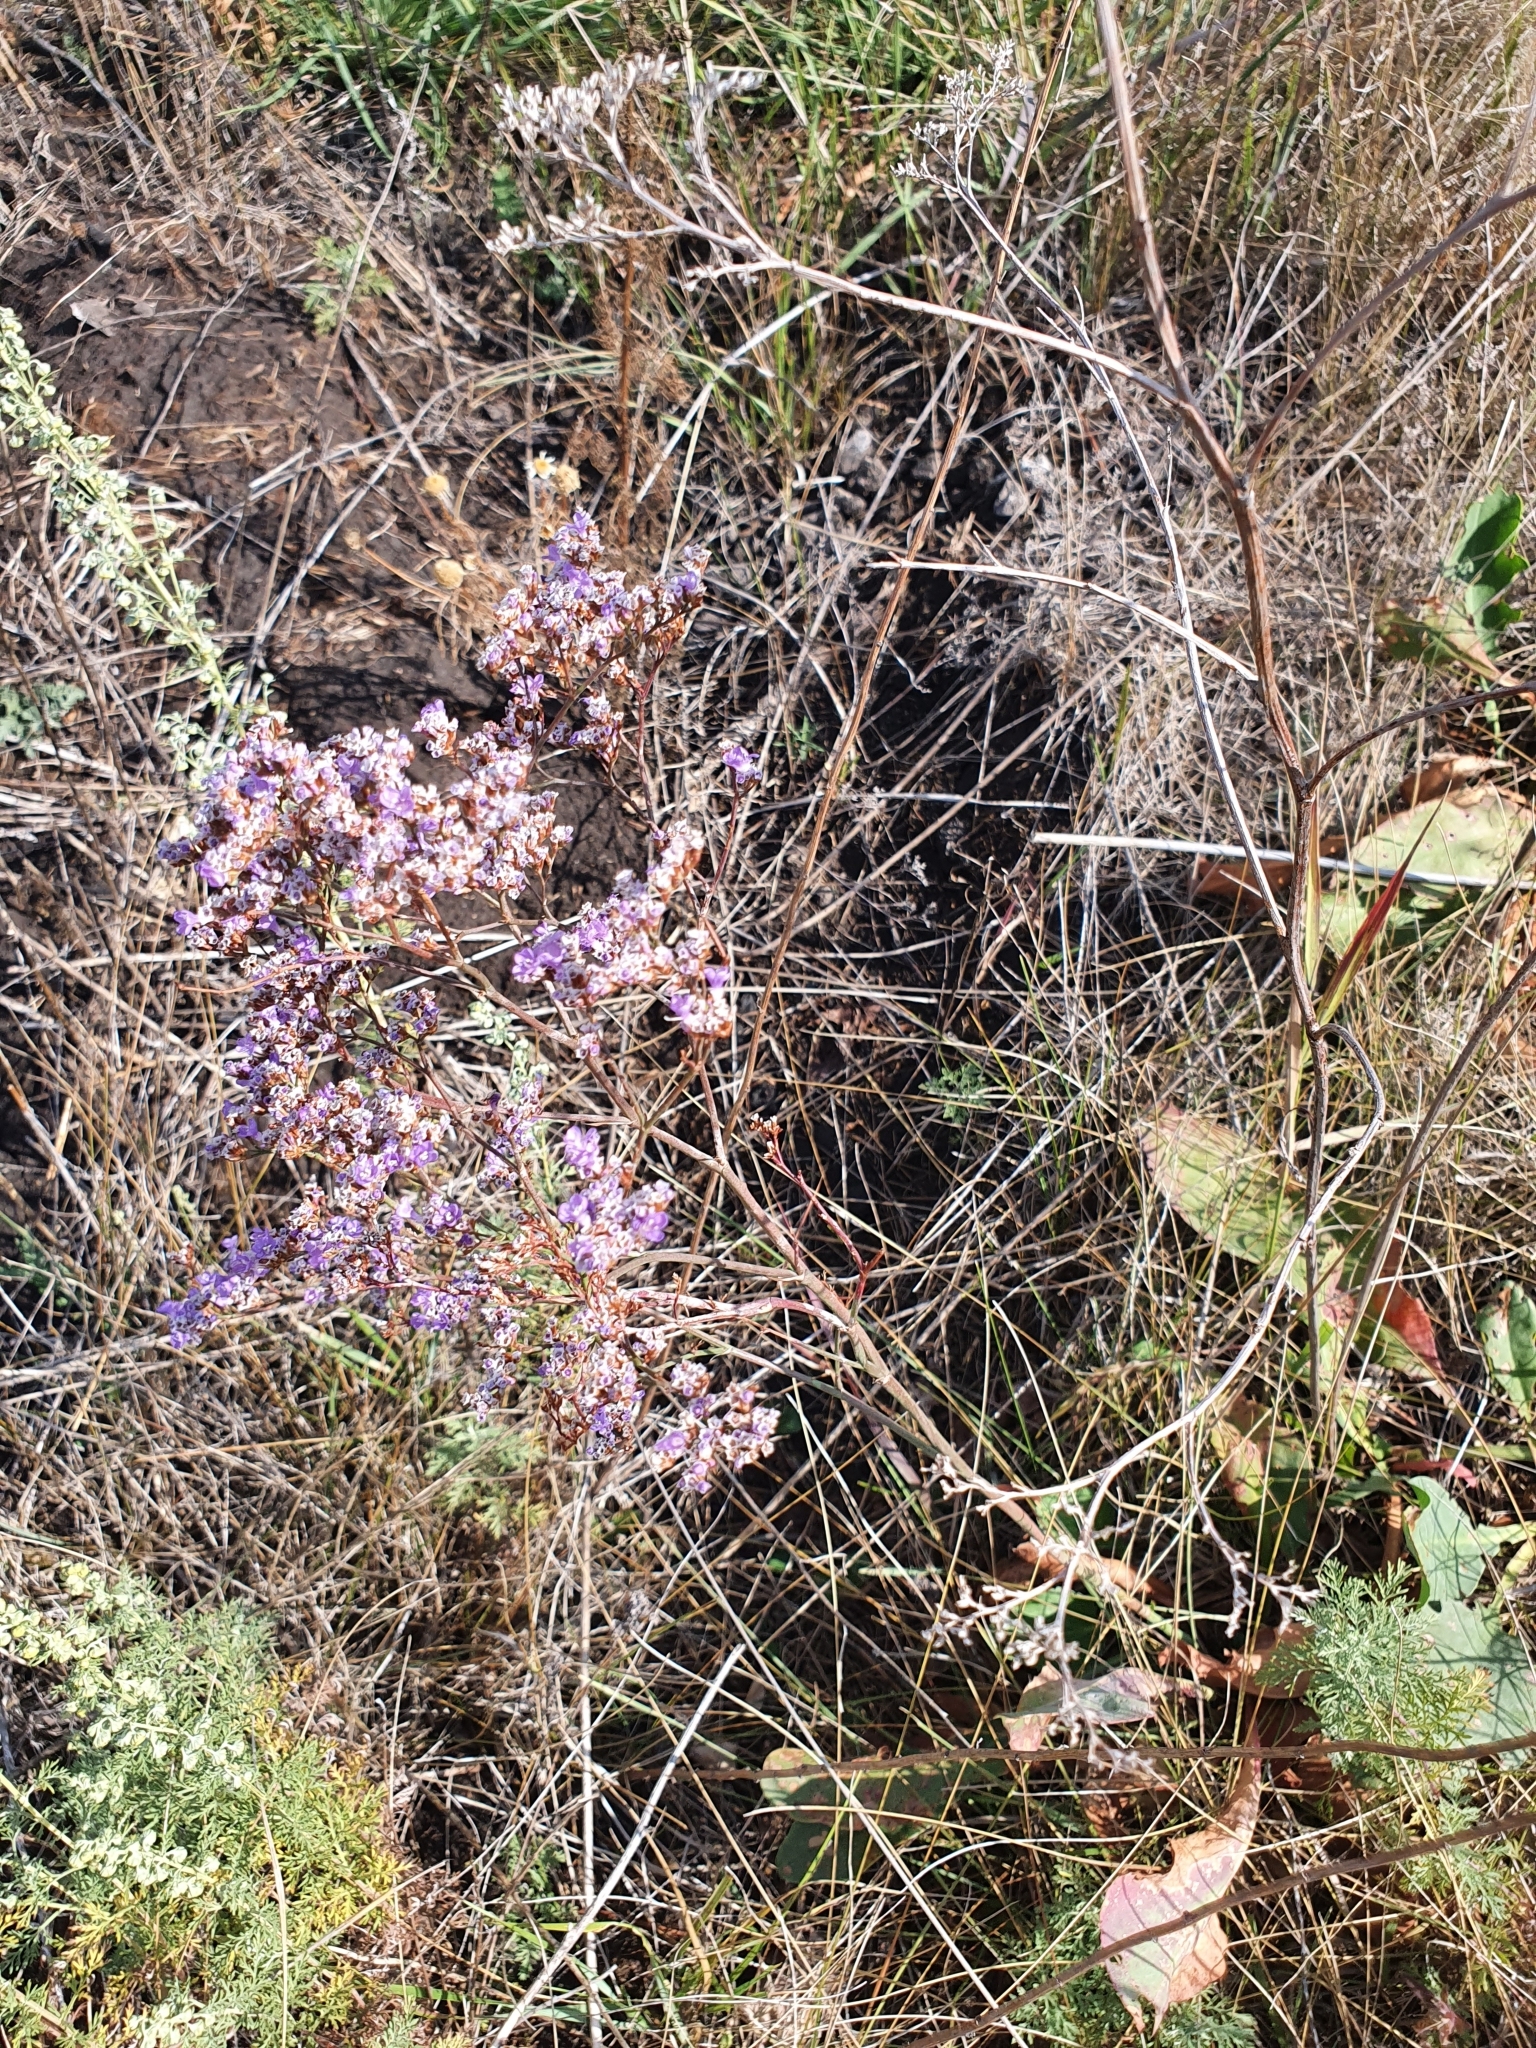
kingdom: Plantae
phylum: Tracheophyta
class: Magnoliopsida
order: Caryophyllales
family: Plumbaginaceae
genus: Limonium
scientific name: Limonium gmelini
